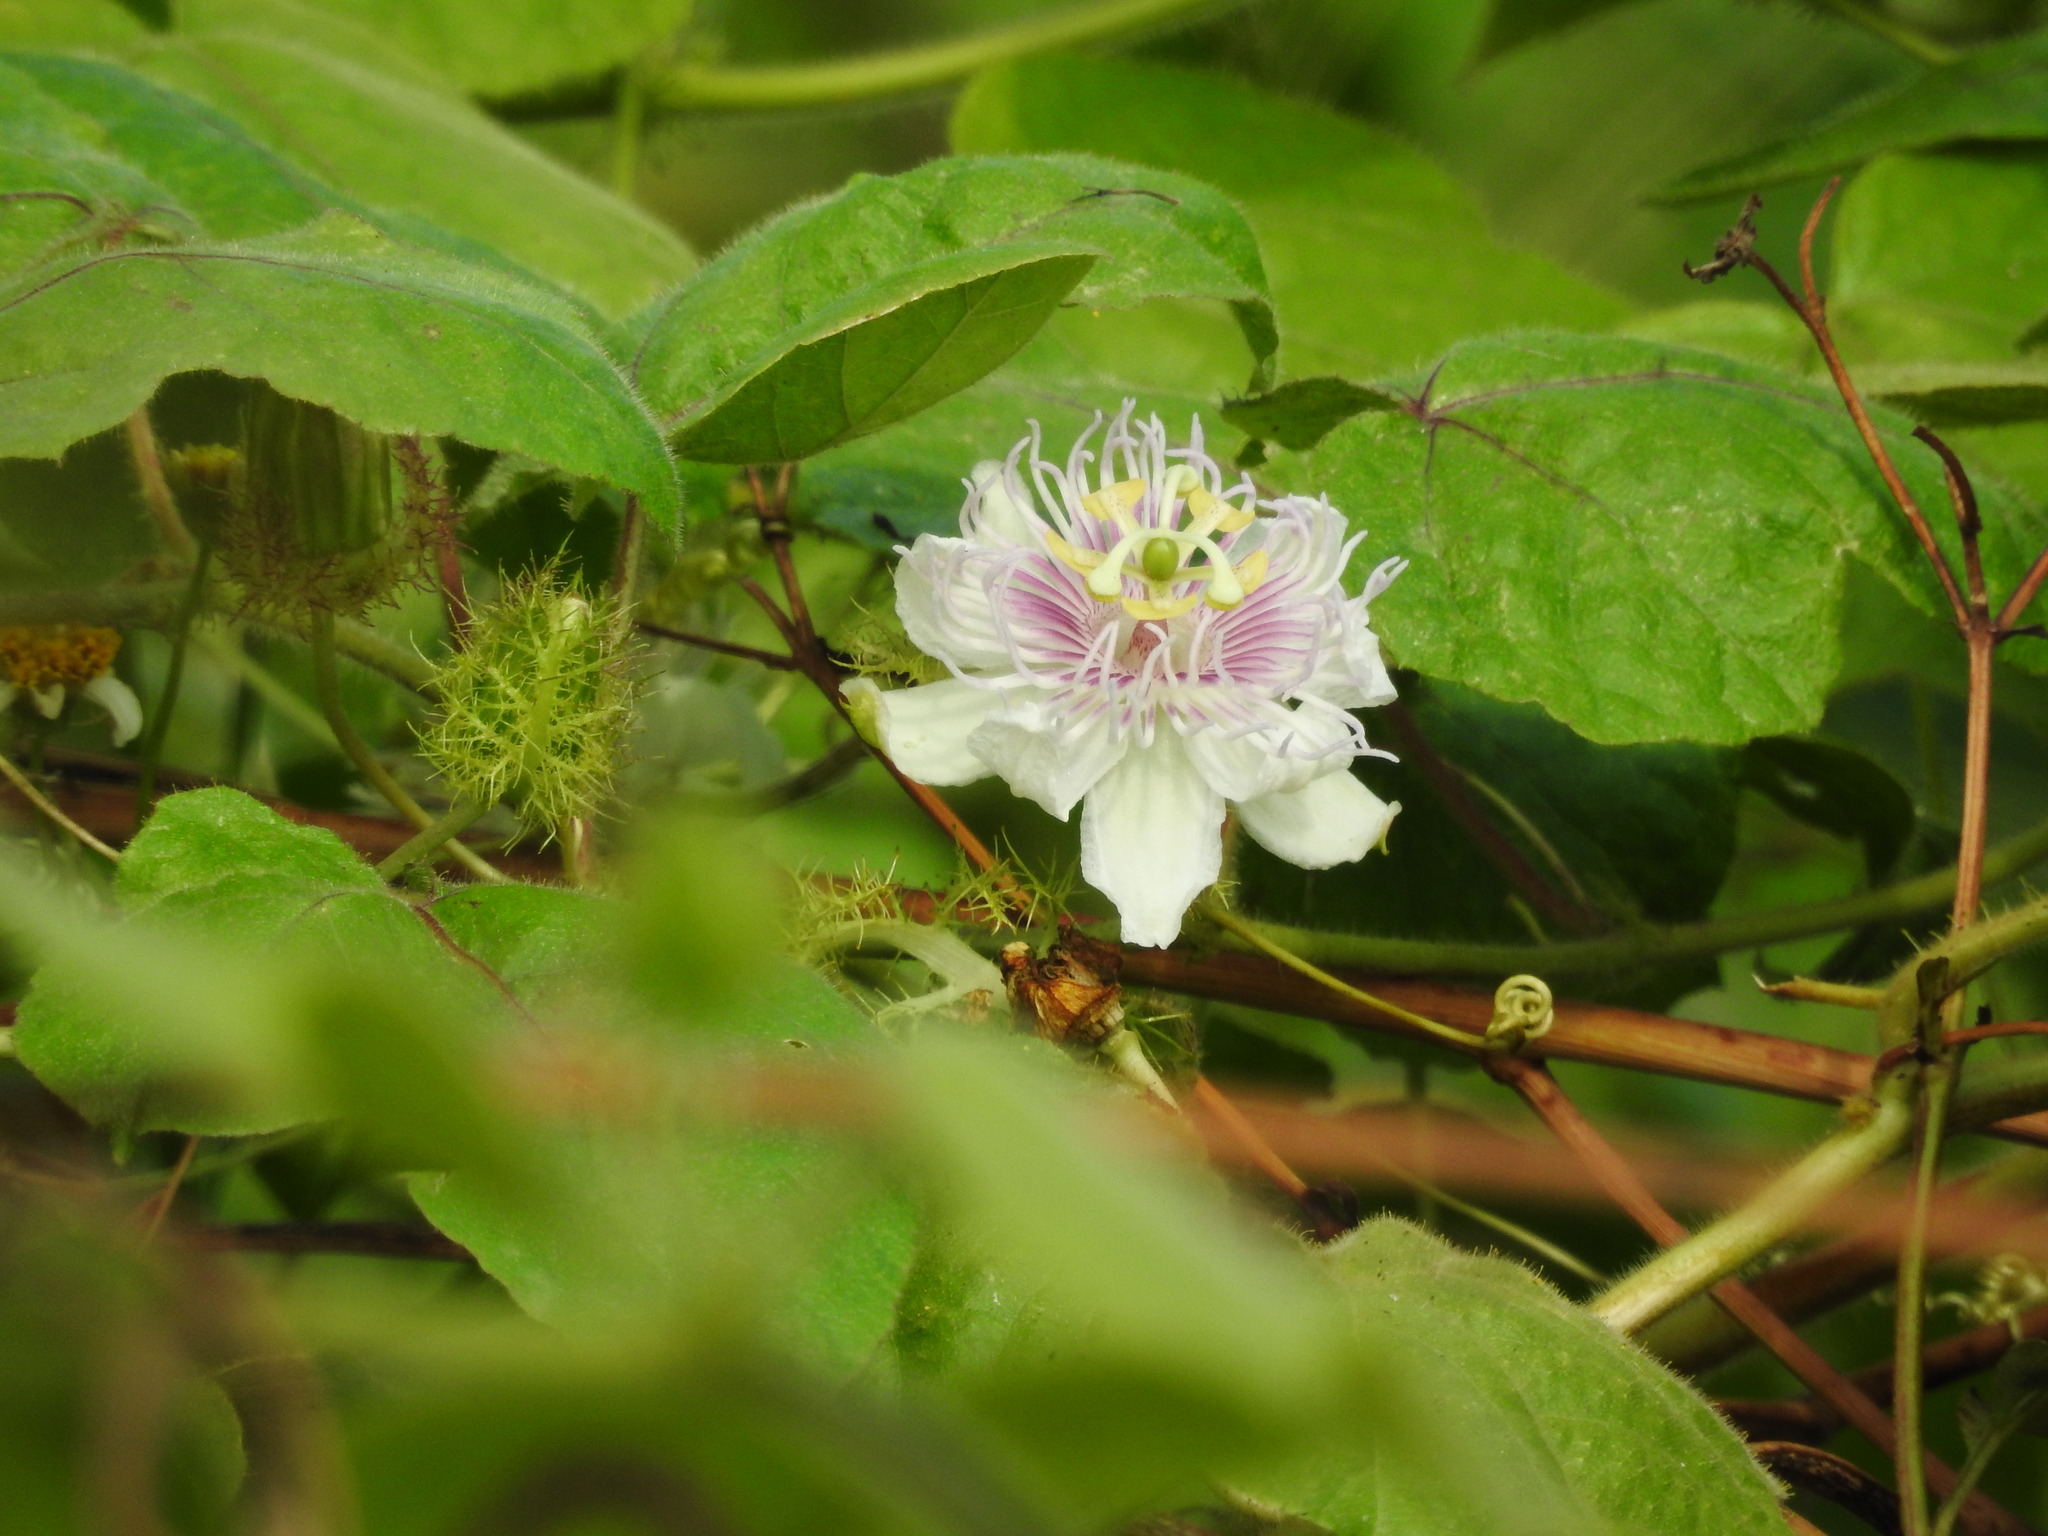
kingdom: Plantae
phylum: Tracheophyta
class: Magnoliopsida
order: Malpighiales
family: Passifloraceae
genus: Passiflora
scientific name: Passiflora vesicaria
